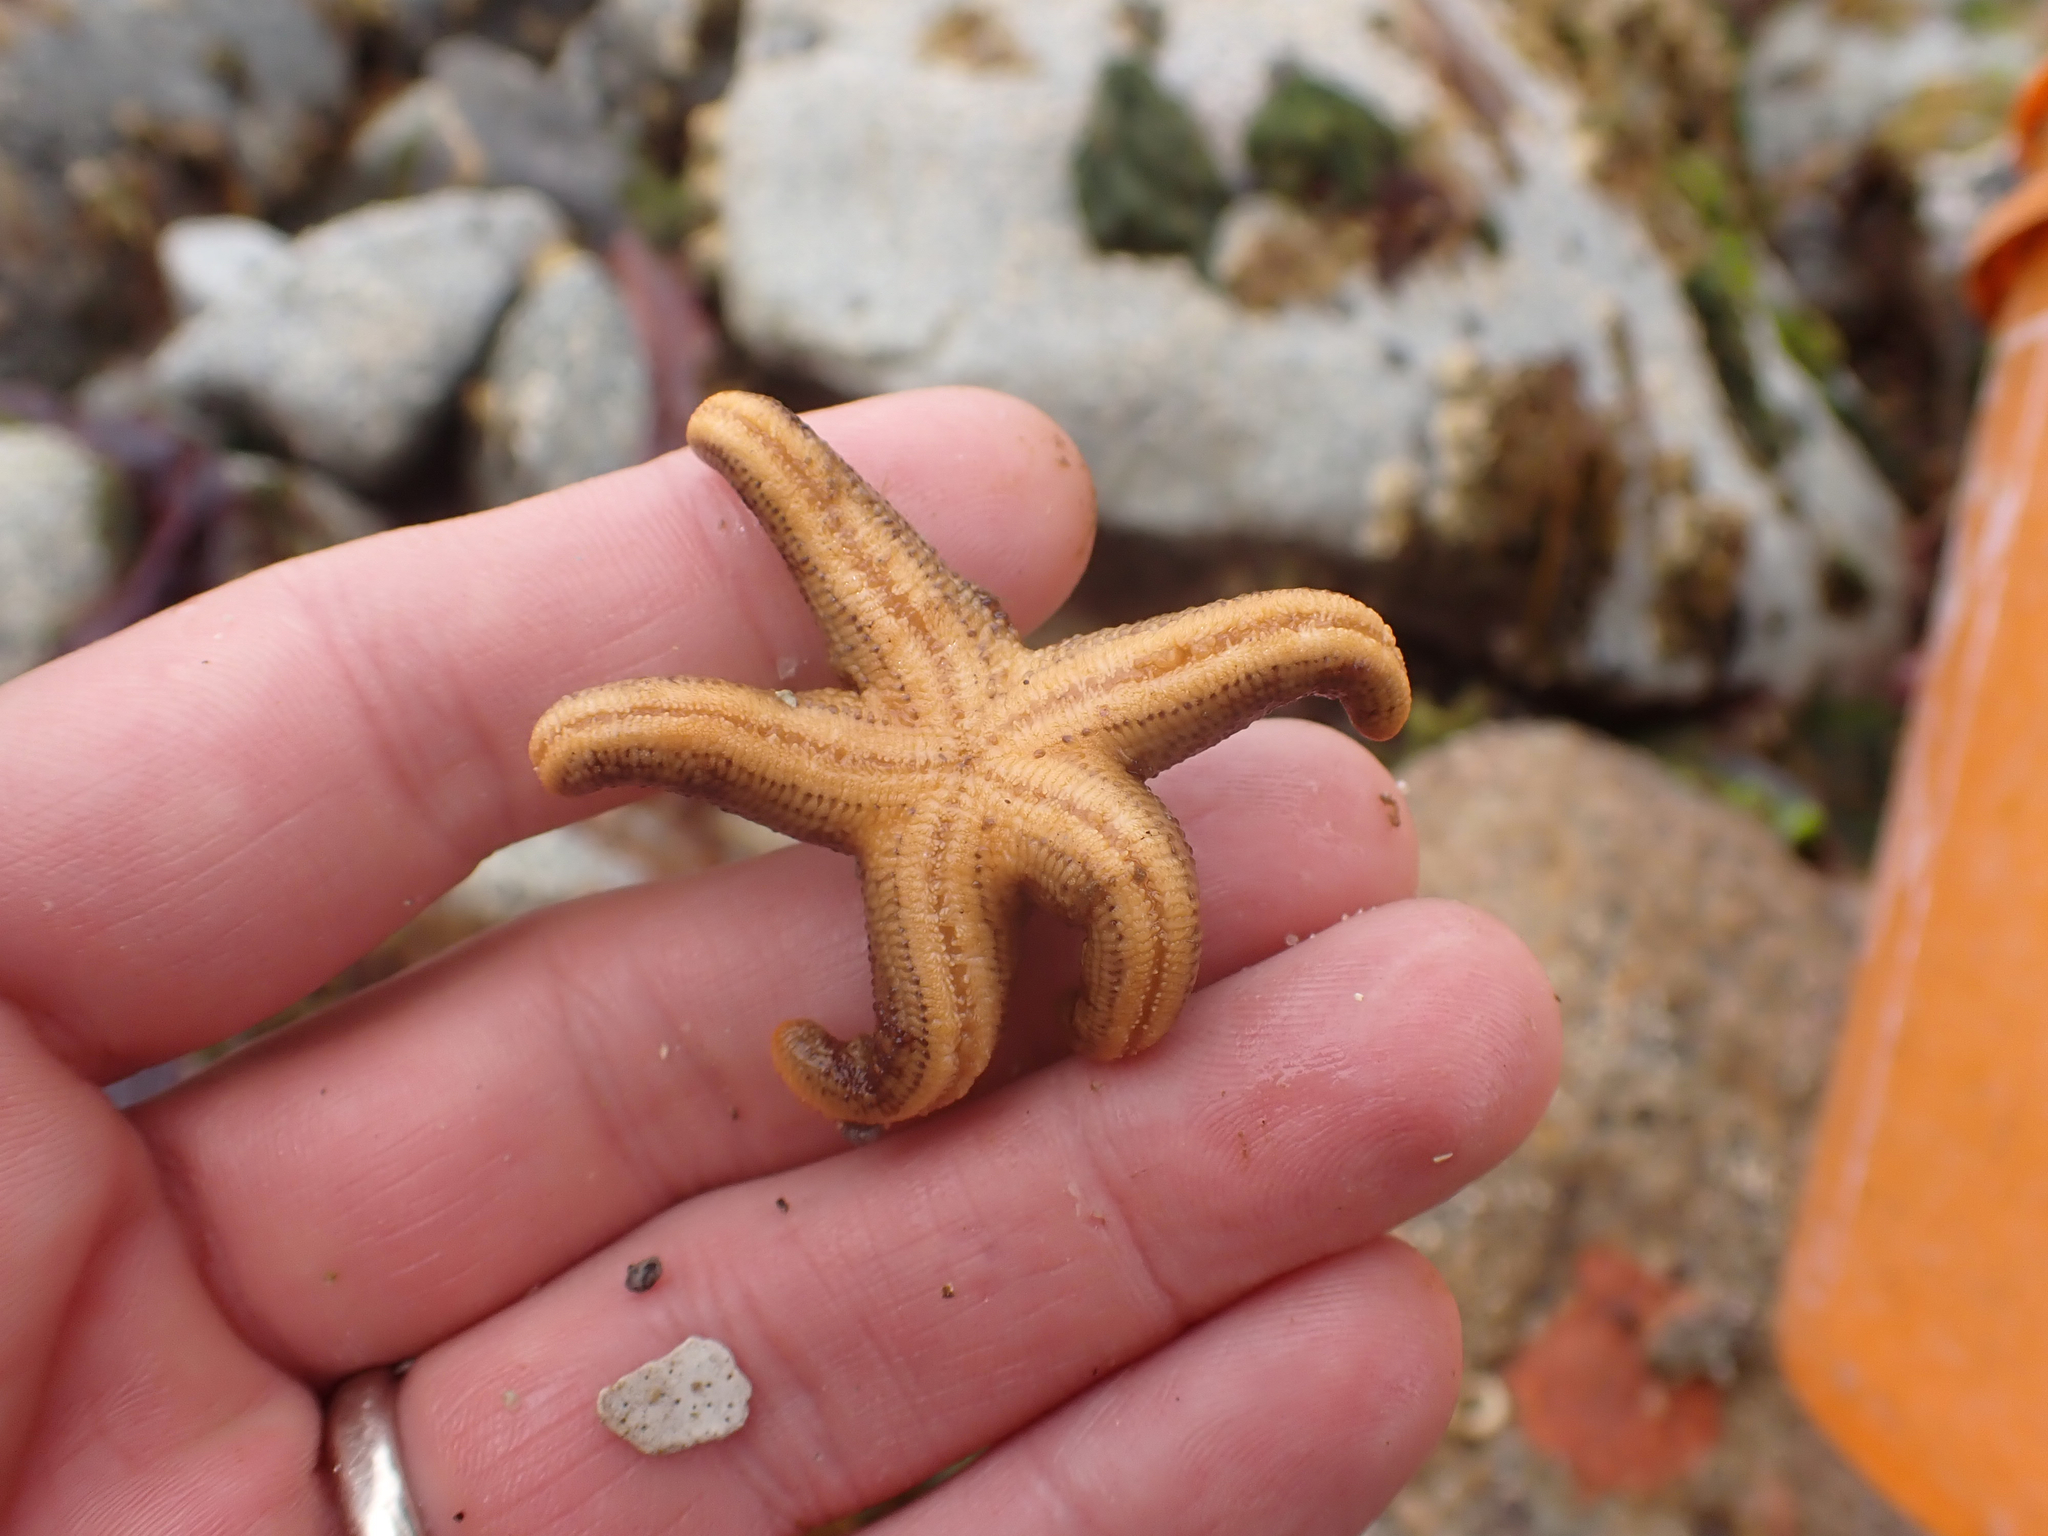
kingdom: Animalia
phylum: Echinodermata
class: Asteroidea
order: Spinulosida
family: Echinasteridae
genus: Henricia
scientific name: Henricia pumila
